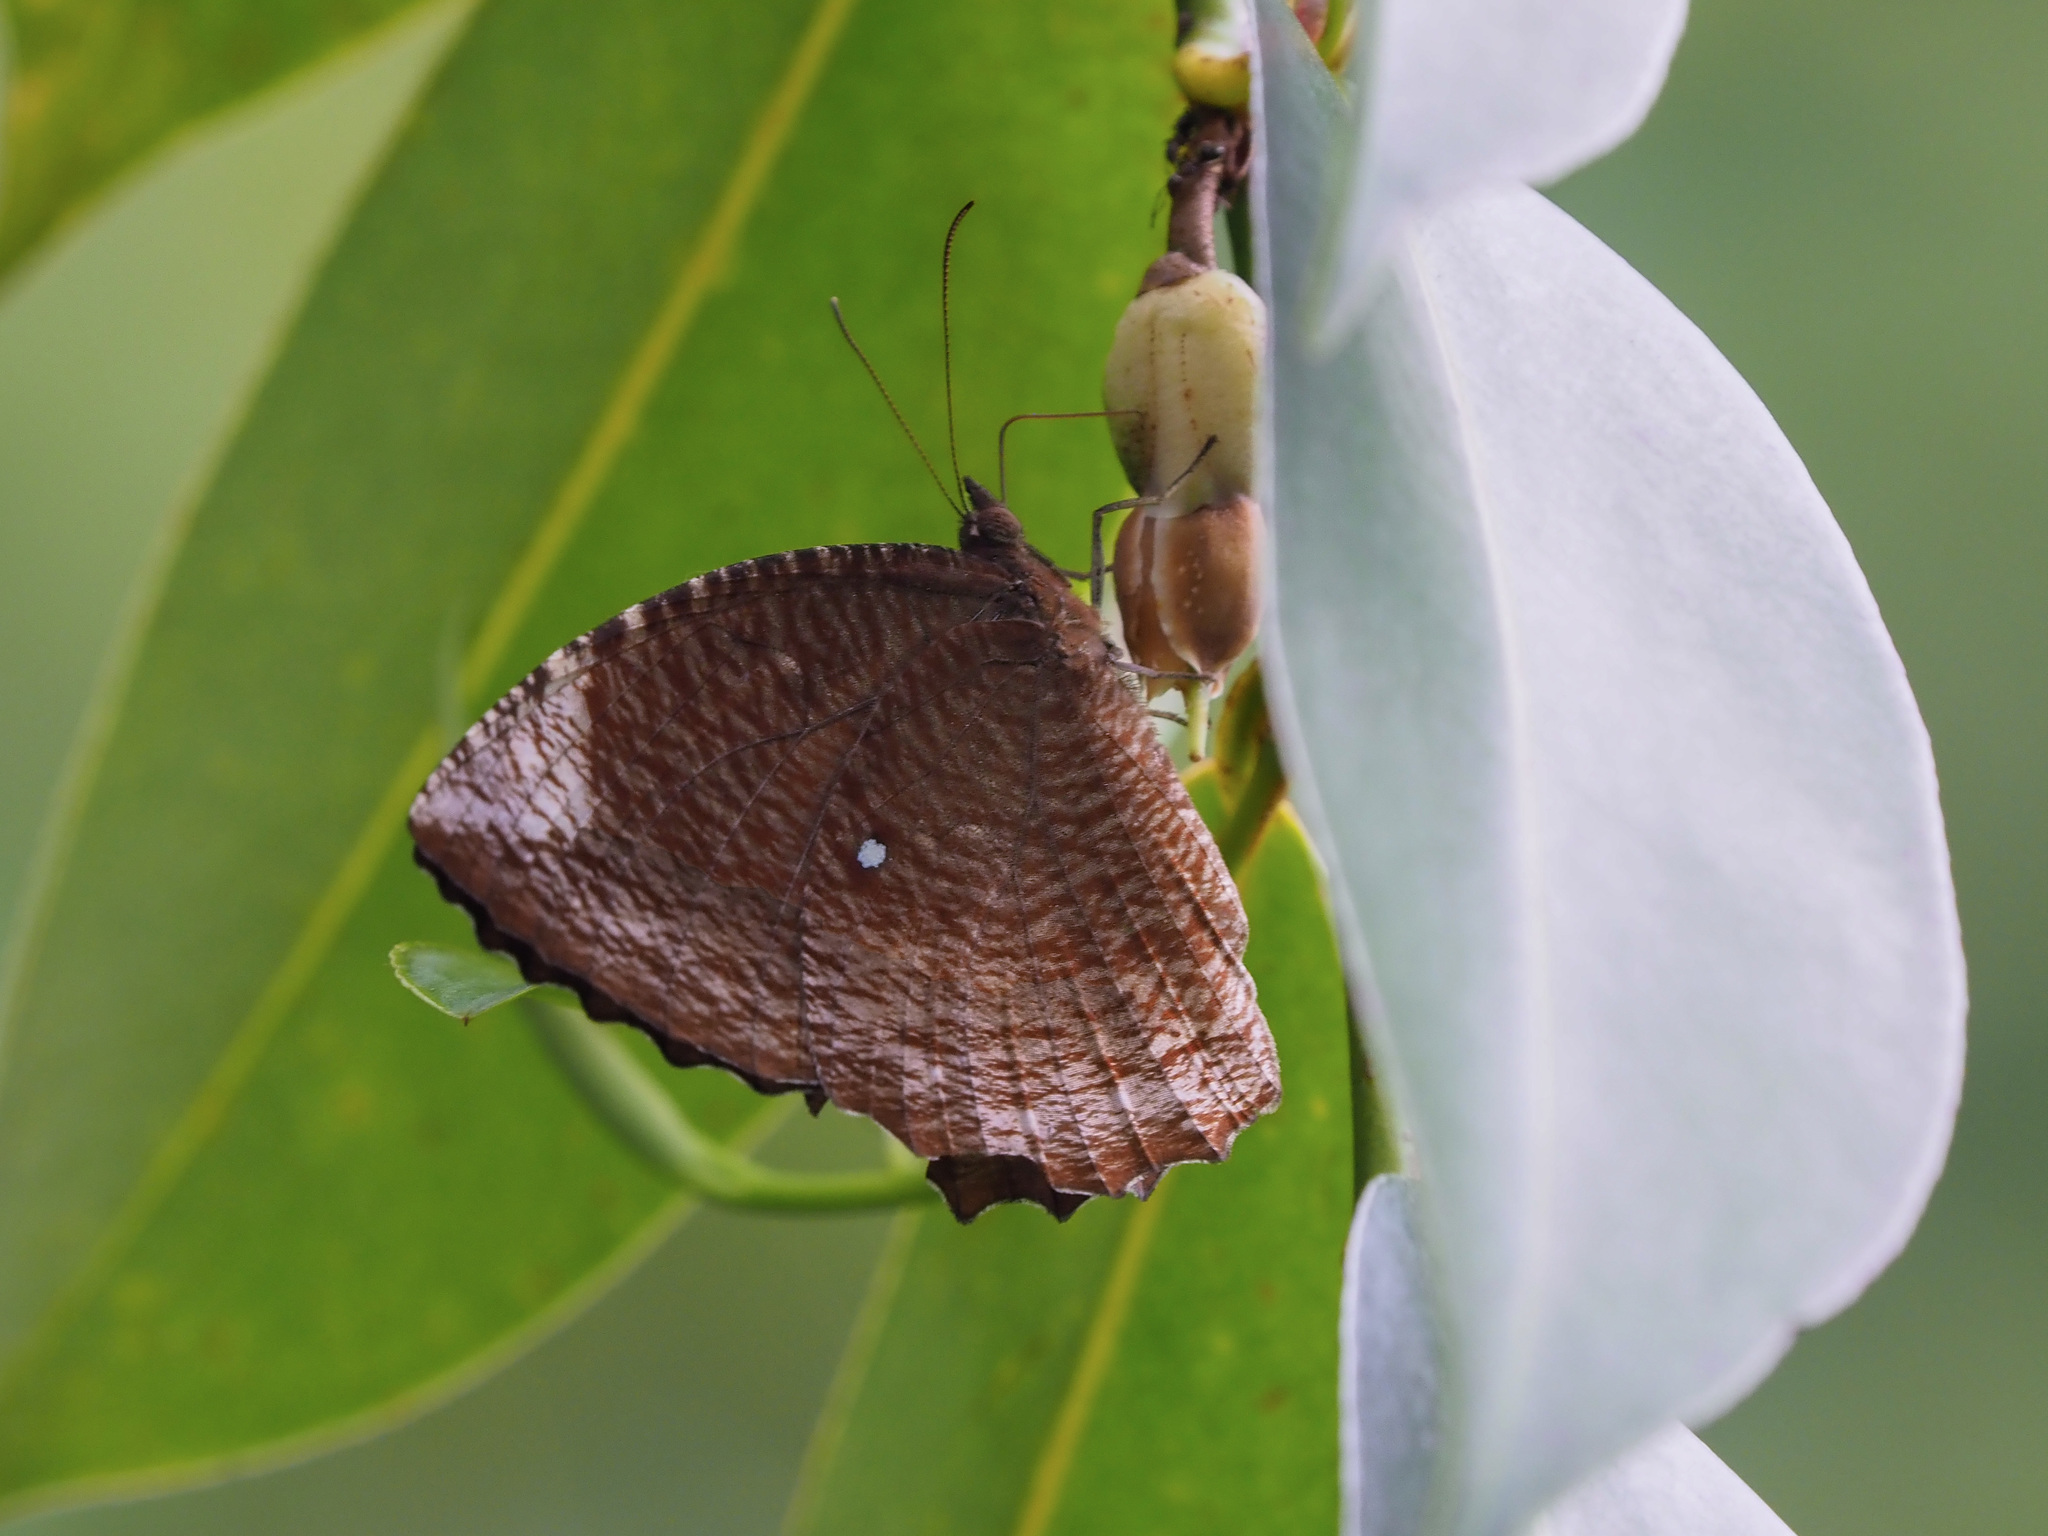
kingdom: Animalia
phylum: Arthropoda
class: Insecta
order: Lepidoptera
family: Nymphalidae
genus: Elymnias
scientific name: Elymnias hypermnestra
